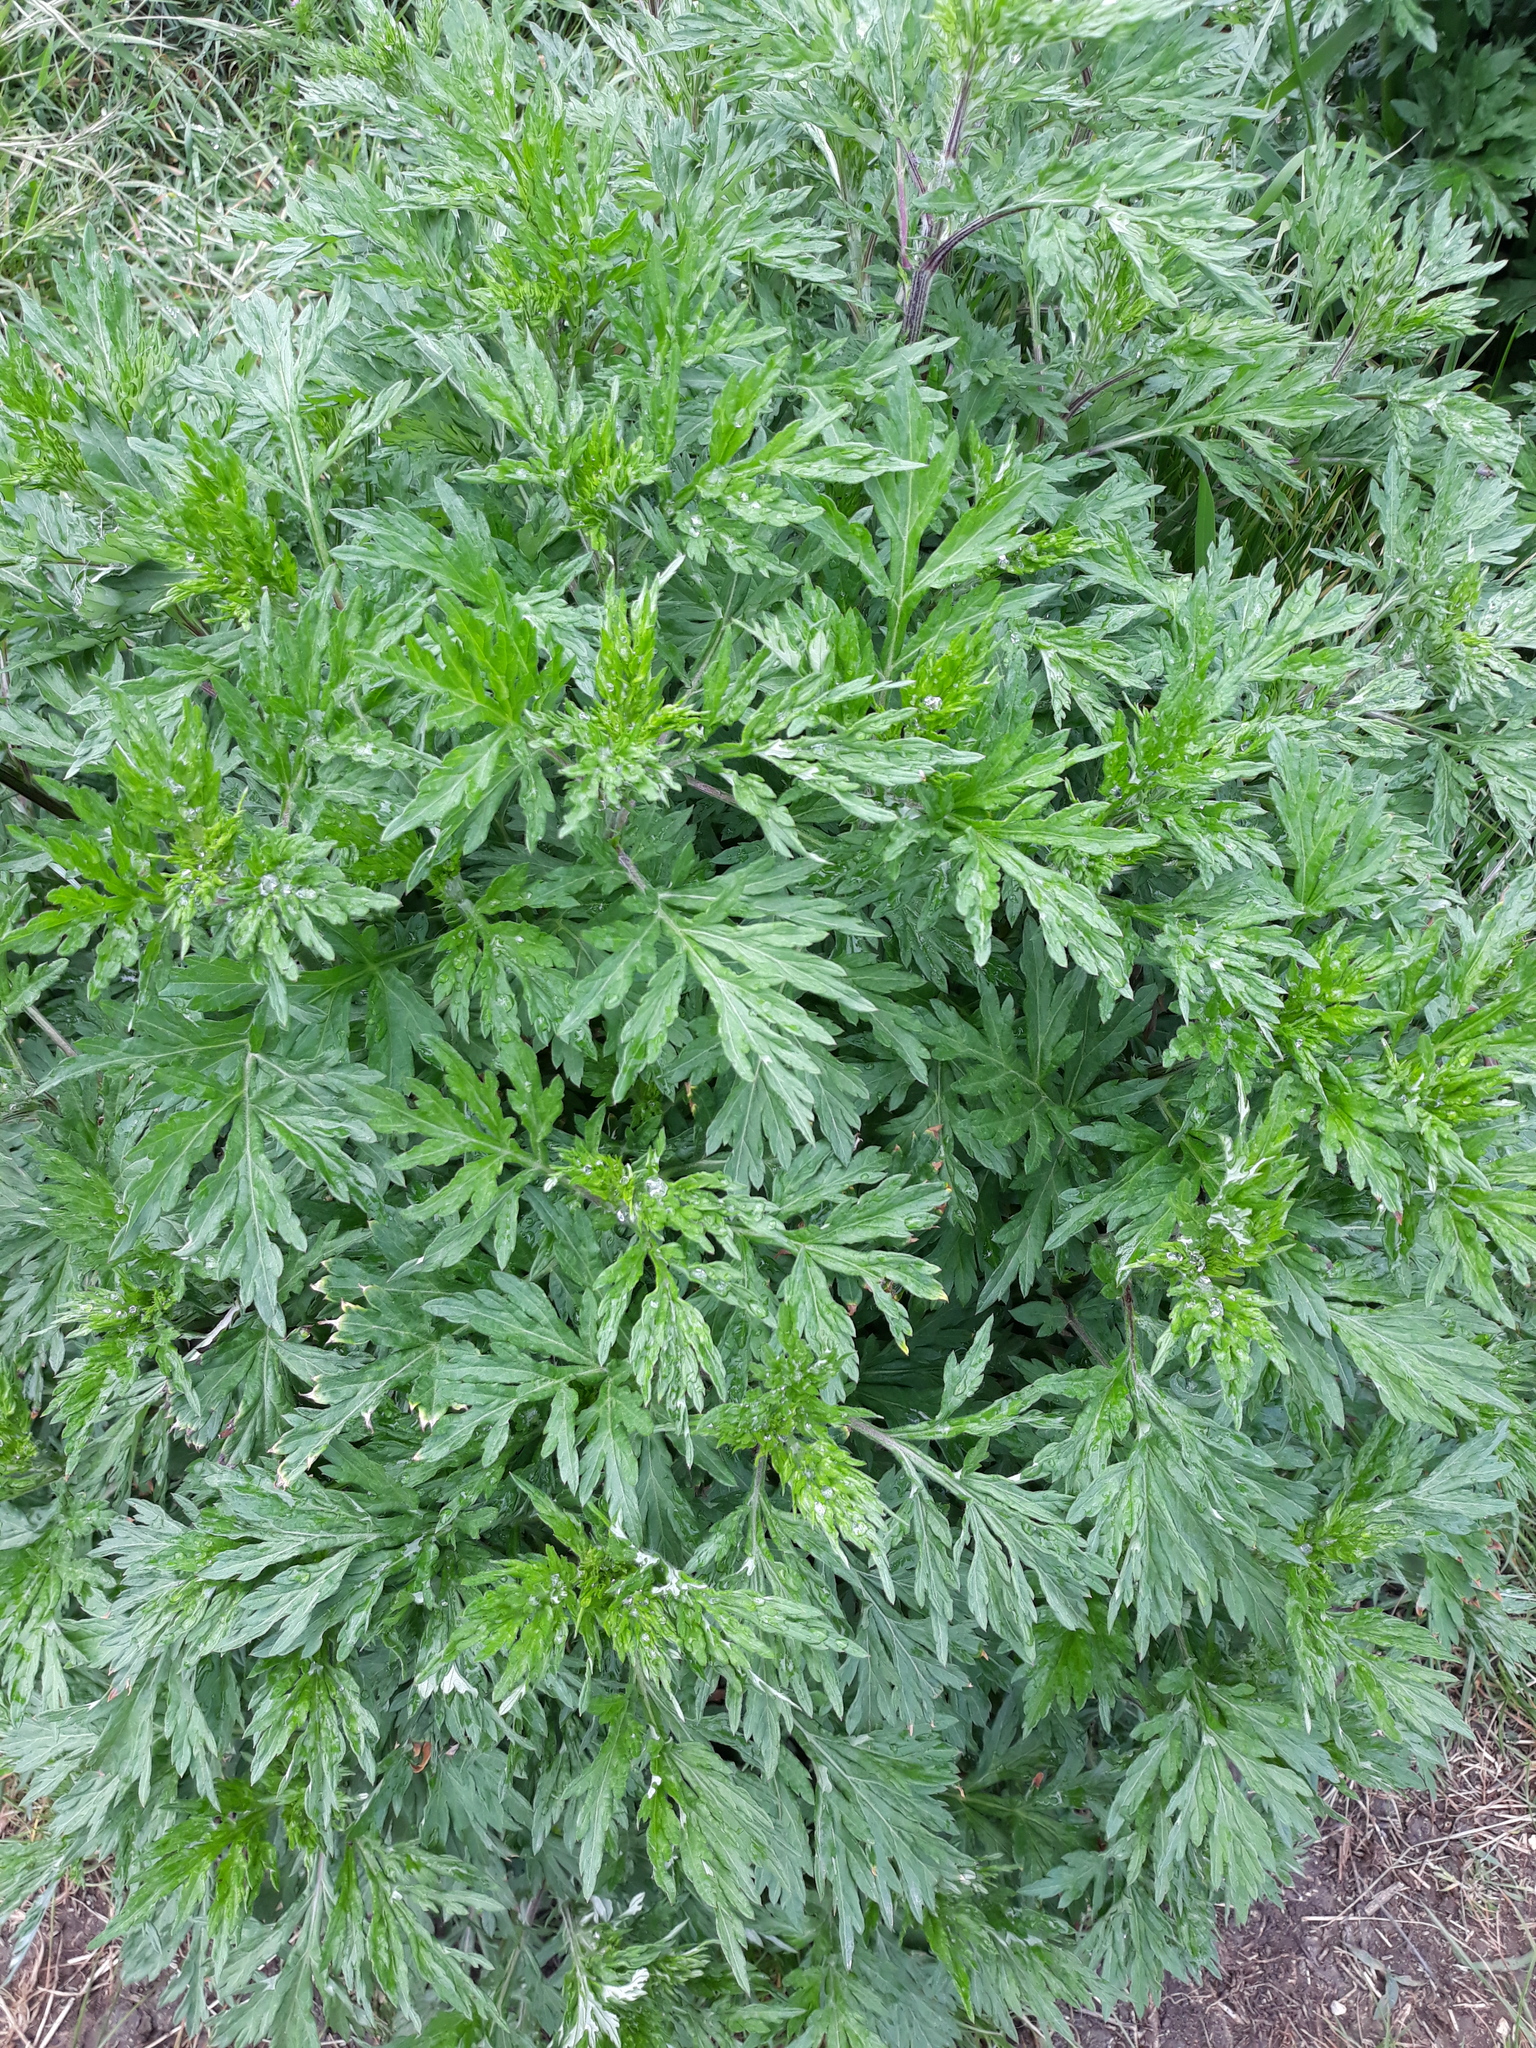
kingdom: Plantae
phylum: Tracheophyta
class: Magnoliopsida
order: Asterales
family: Asteraceae
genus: Artemisia
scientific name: Artemisia vulgaris
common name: Mugwort
